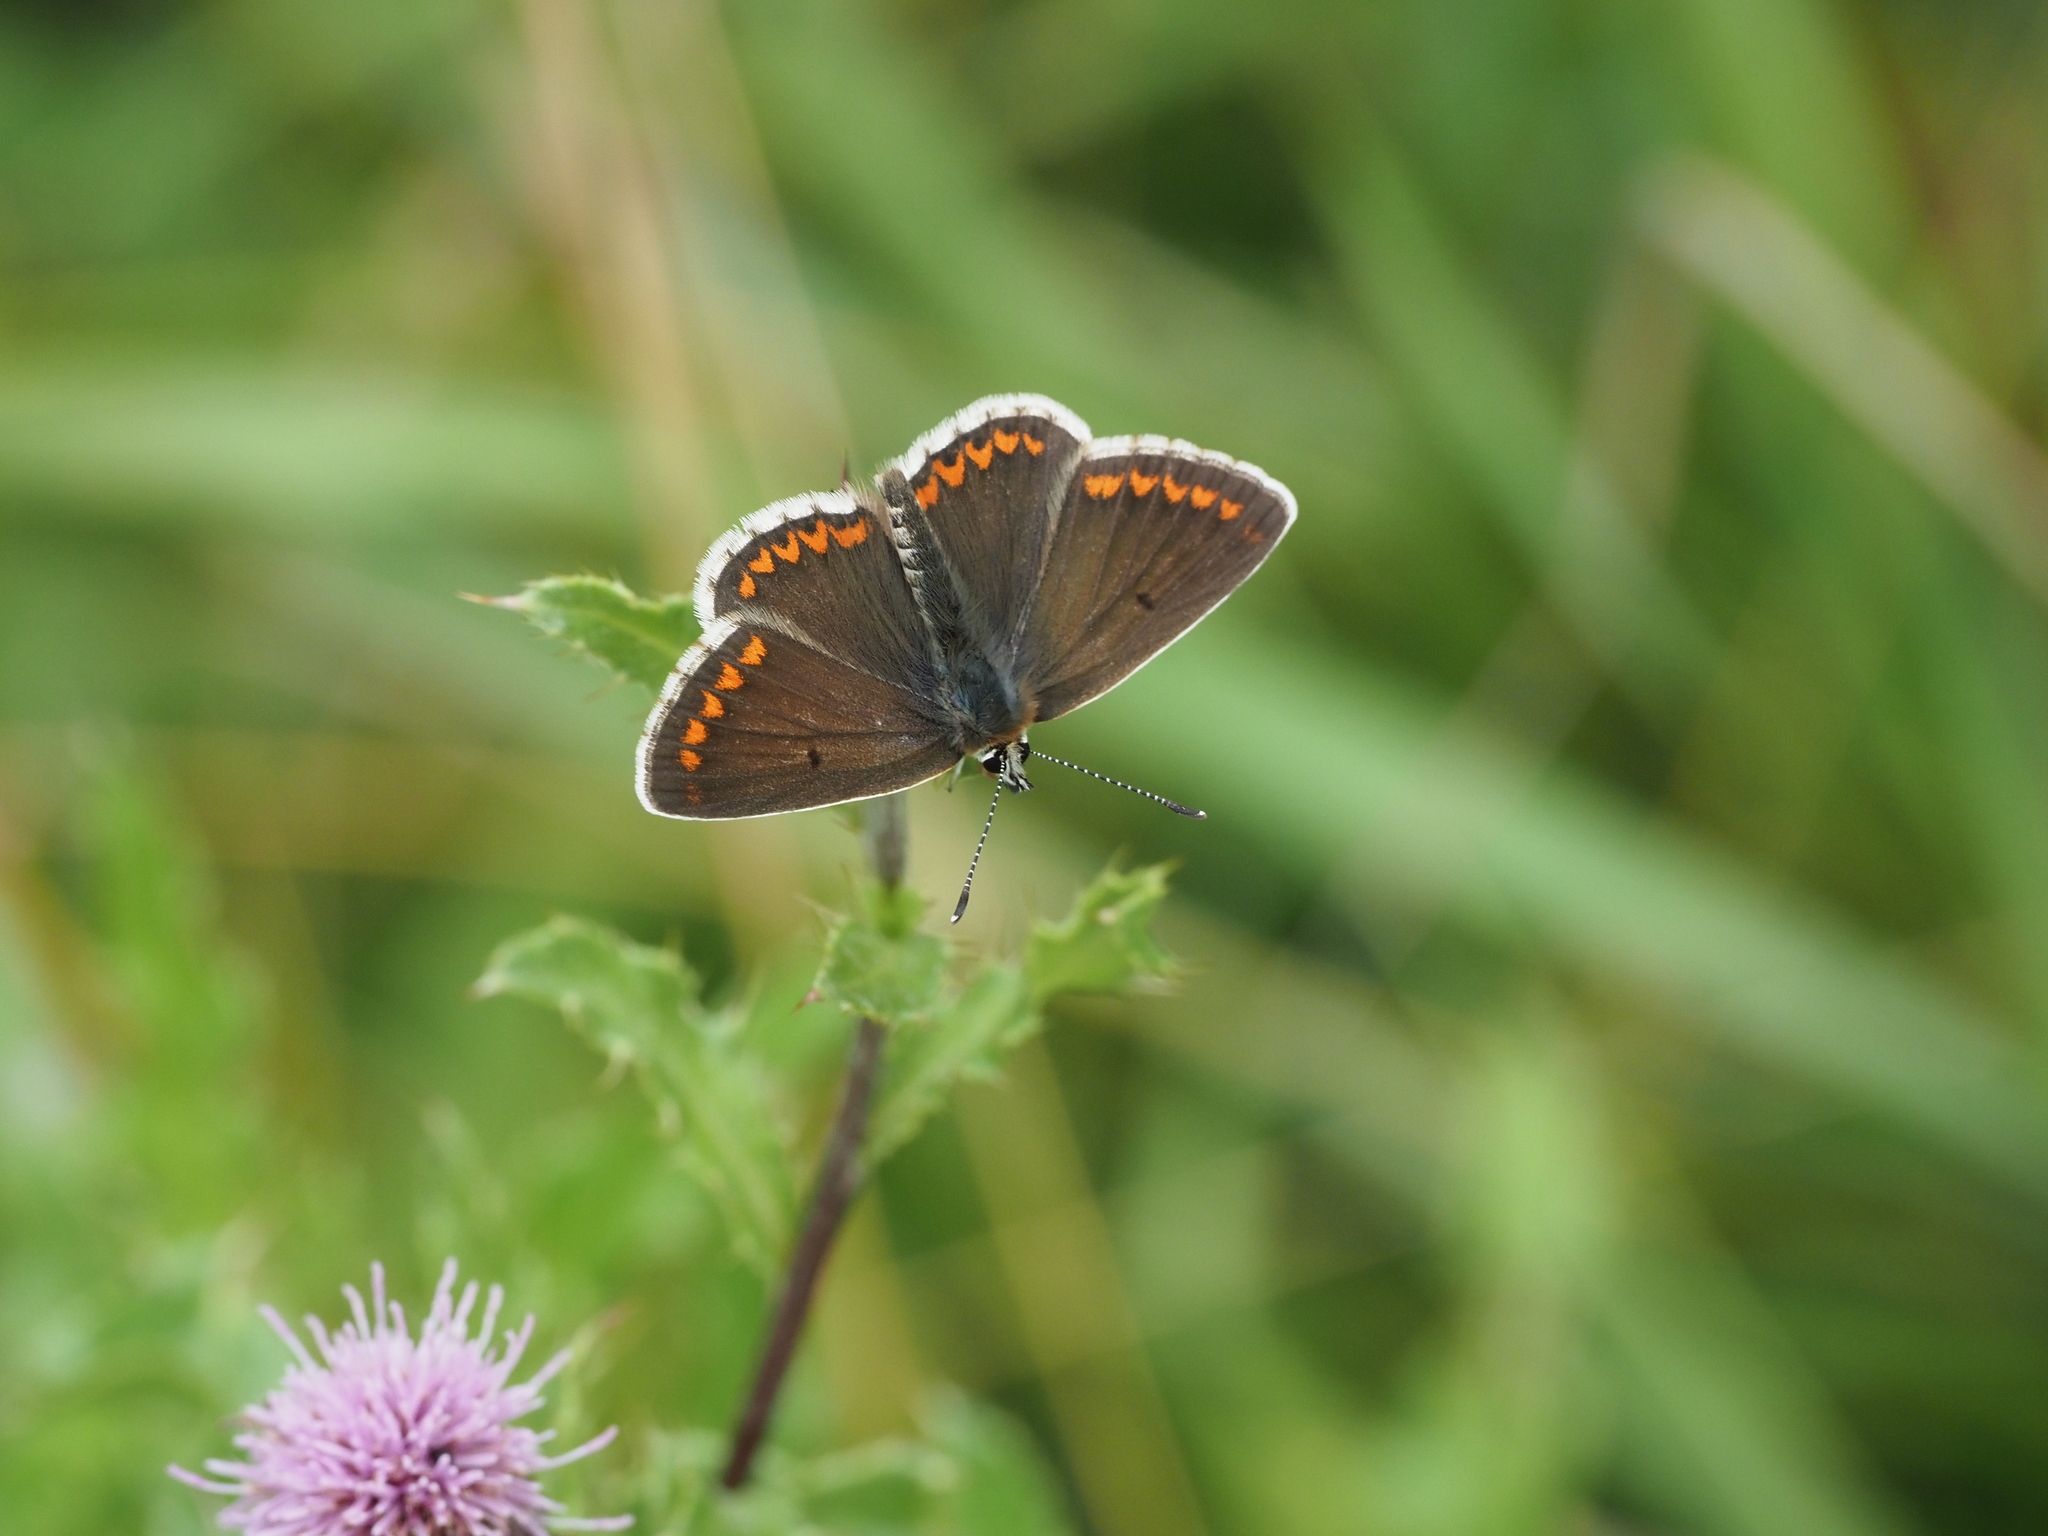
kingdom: Animalia
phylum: Arthropoda
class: Insecta
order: Lepidoptera
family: Lycaenidae
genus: Aricia
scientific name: Aricia agestis
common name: Brown argus
